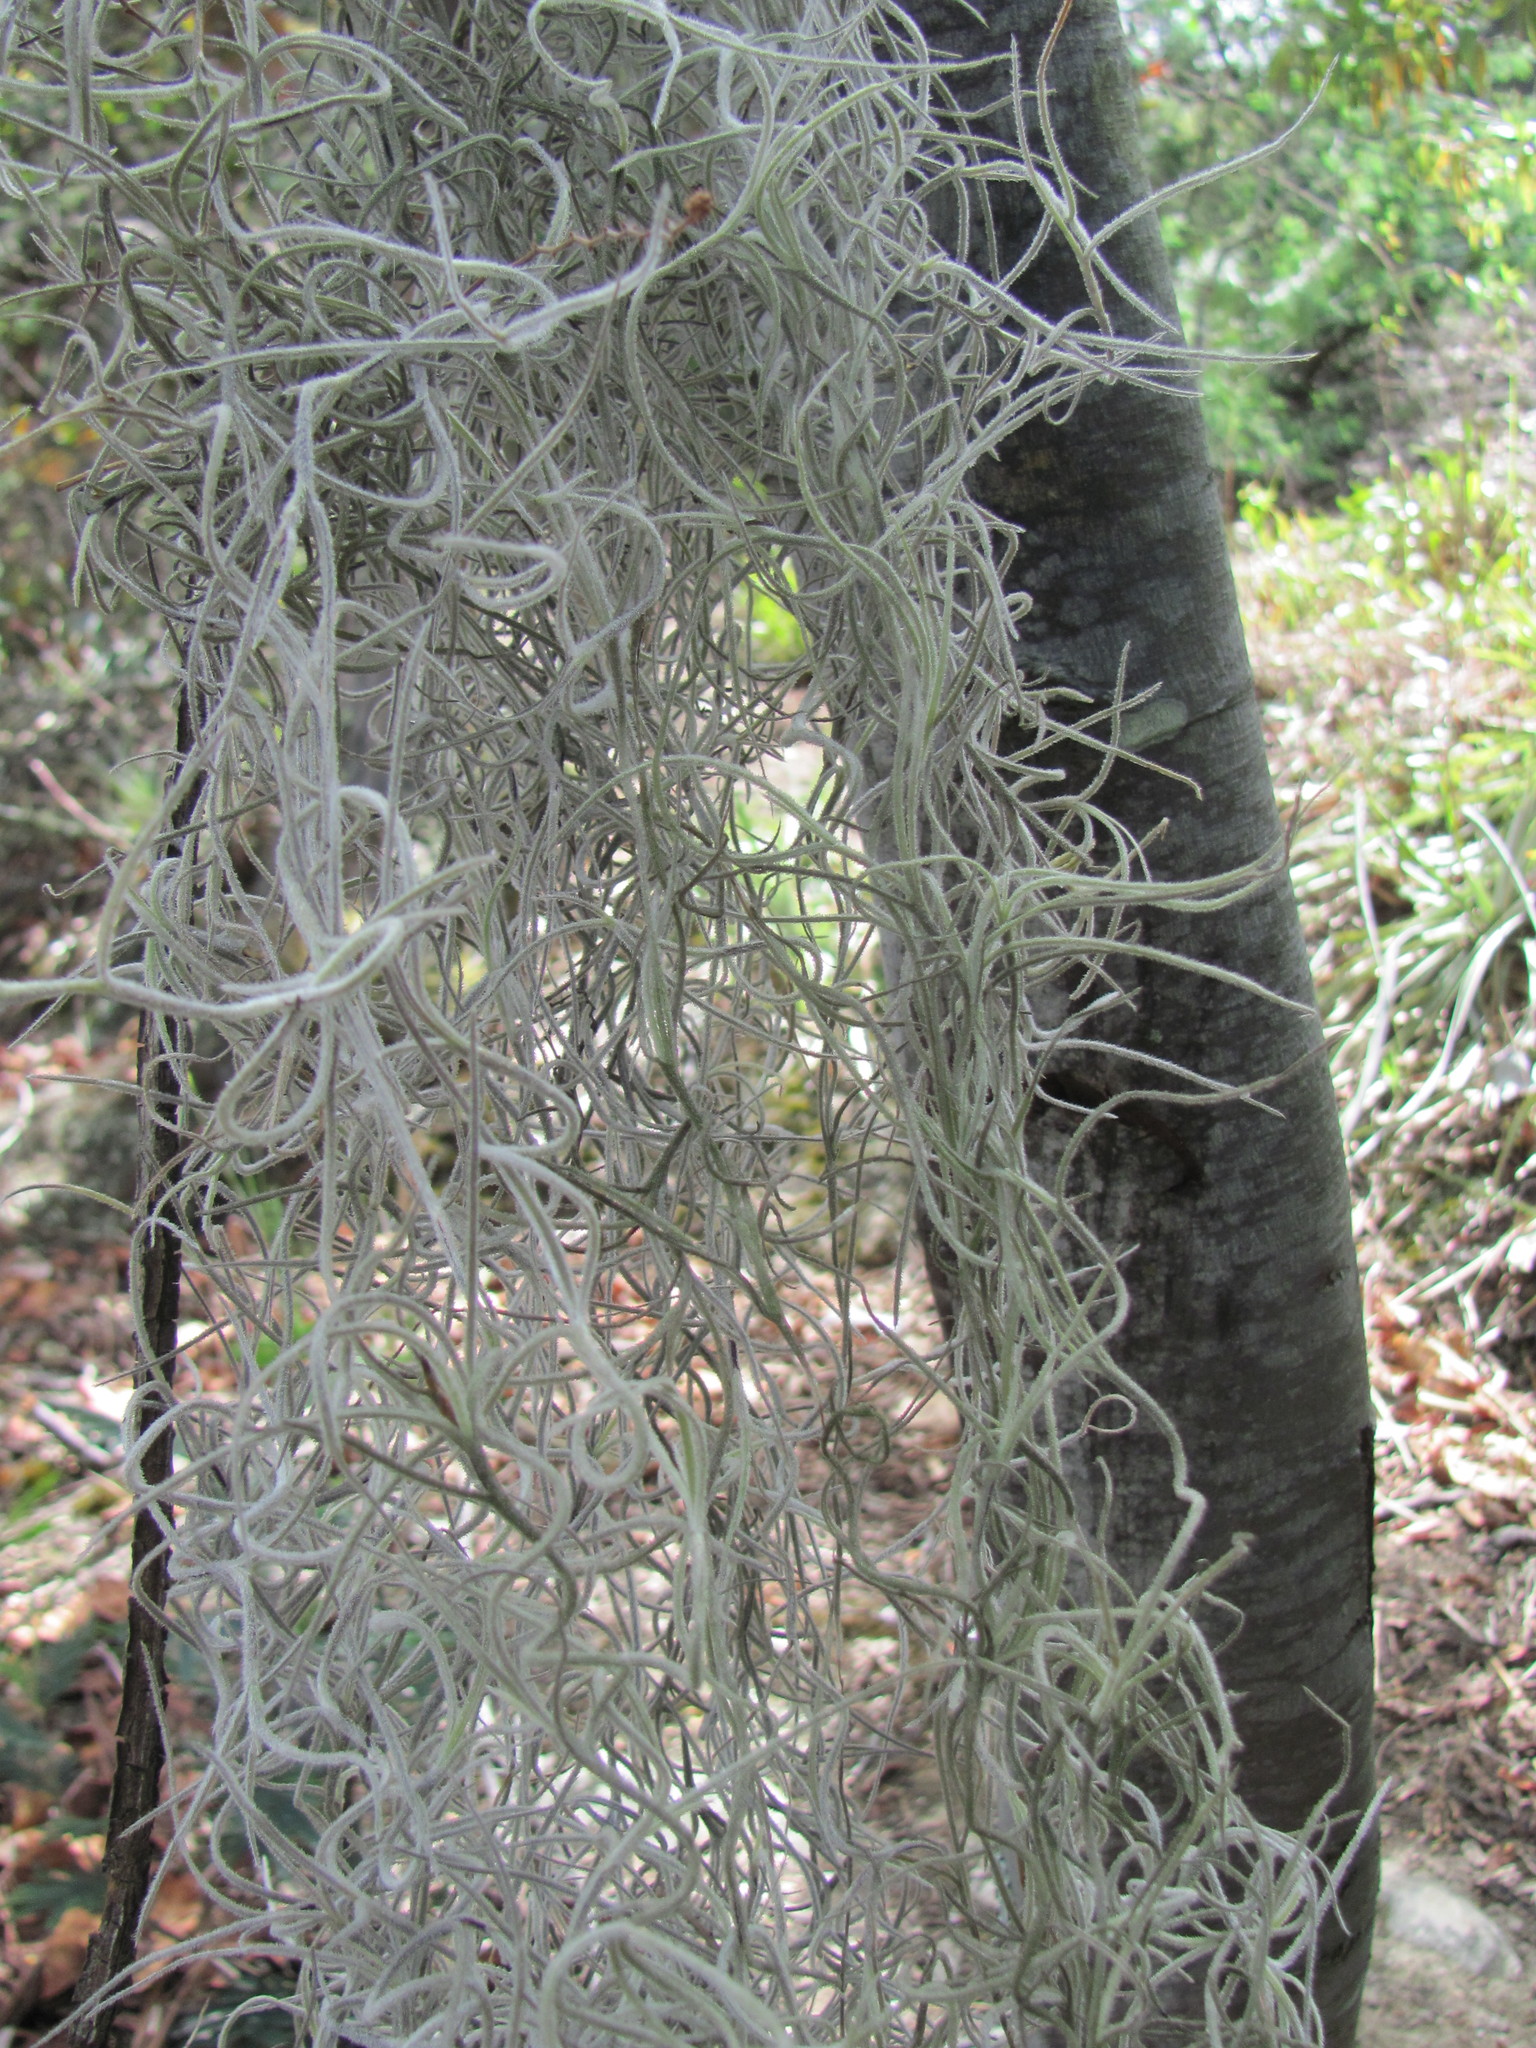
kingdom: Plantae
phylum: Tracheophyta
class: Liliopsida
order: Poales
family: Bromeliaceae
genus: Tillandsia
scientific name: Tillandsia usneoides
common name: Spanish moss
